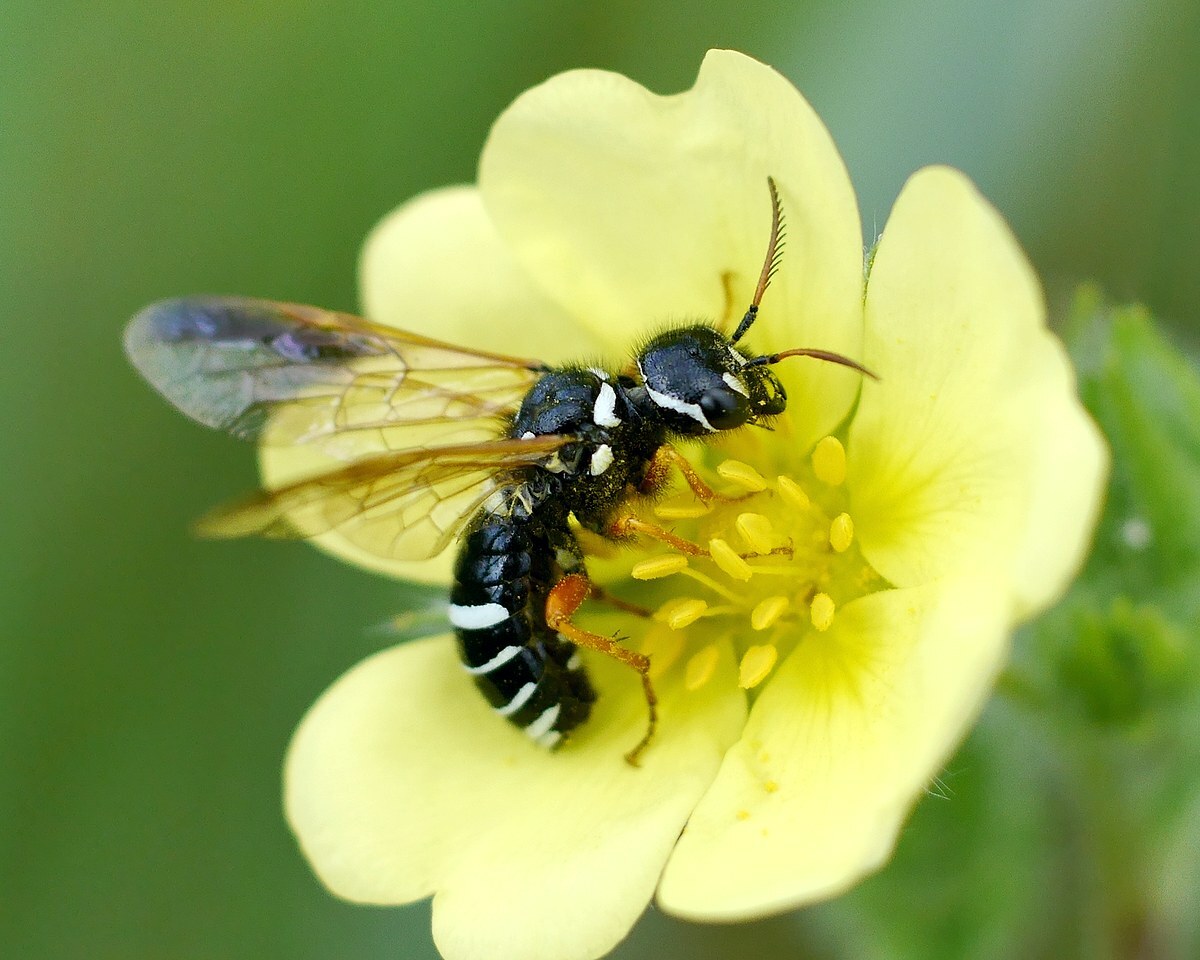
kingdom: Animalia
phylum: Arthropoda
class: Insecta
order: Hymenoptera
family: Megalodontesidae
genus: Megalodontes
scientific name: Megalodontes plagiocephalus
